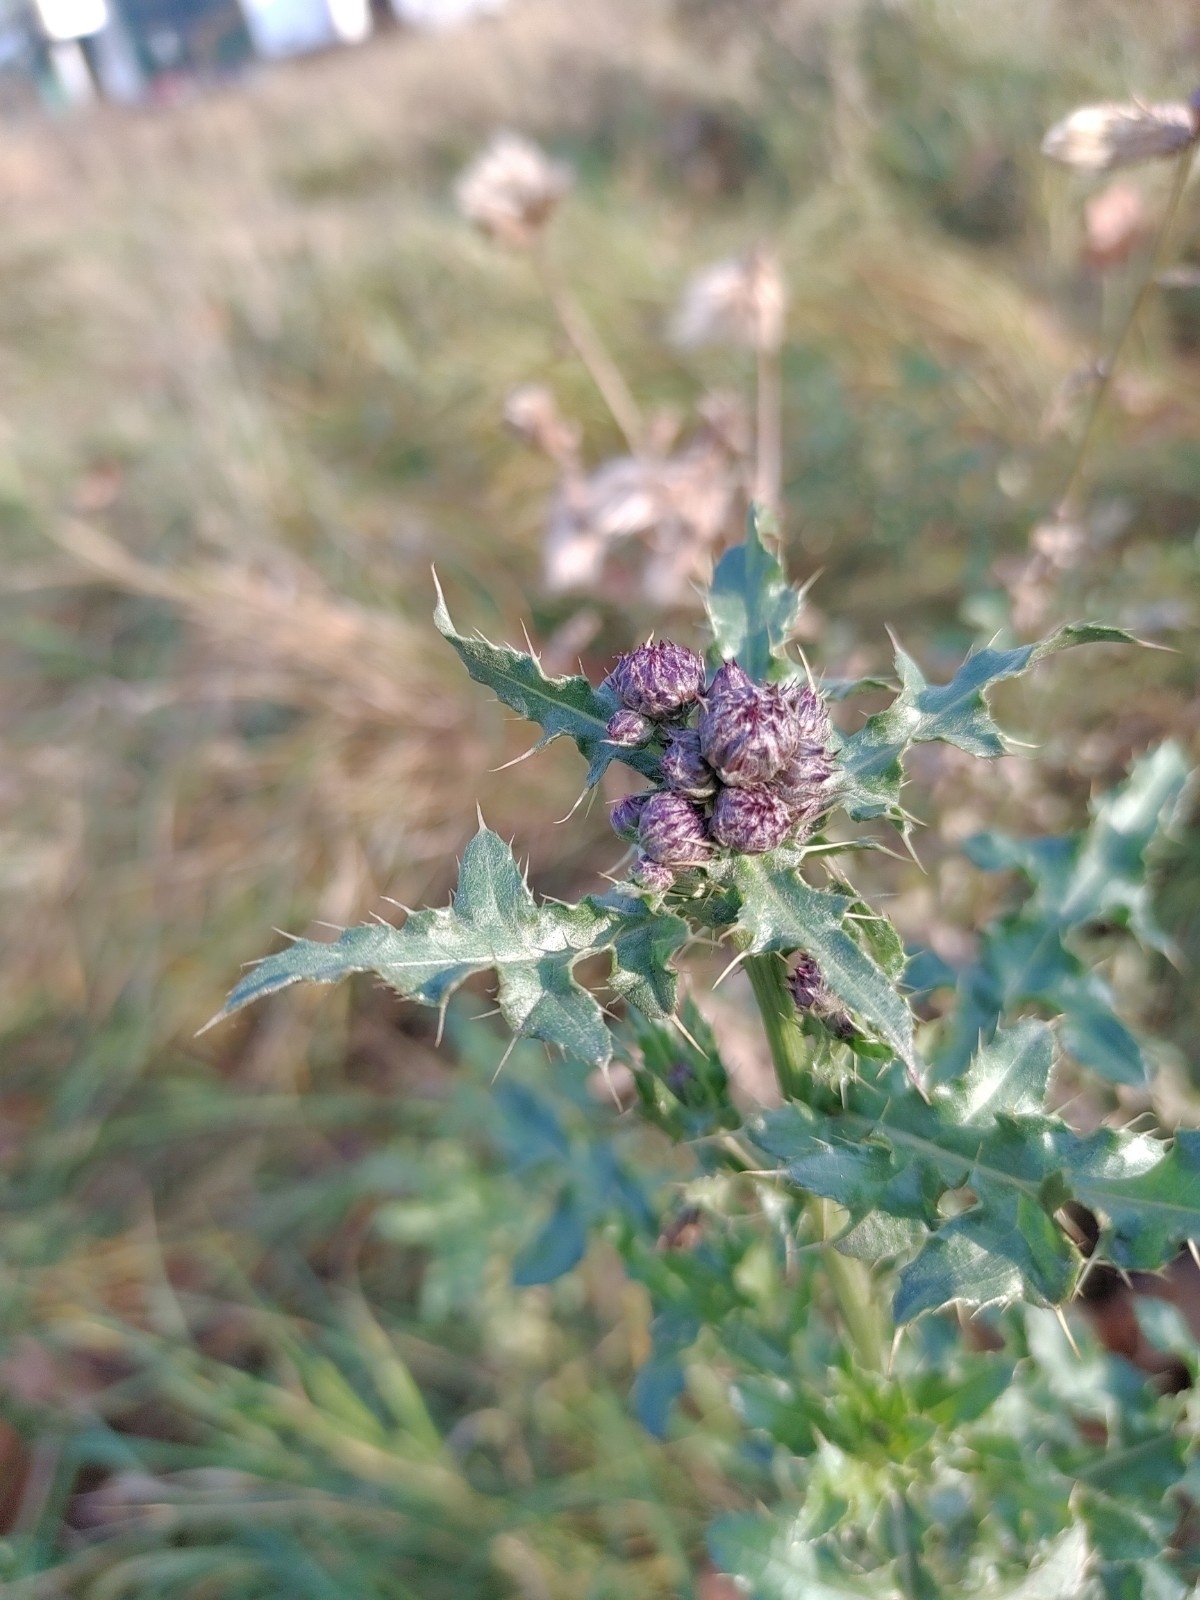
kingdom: Plantae
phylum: Tracheophyta
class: Magnoliopsida
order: Asterales
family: Asteraceae
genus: Cirsium
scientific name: Cirsium arvense
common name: Creeping thistle
